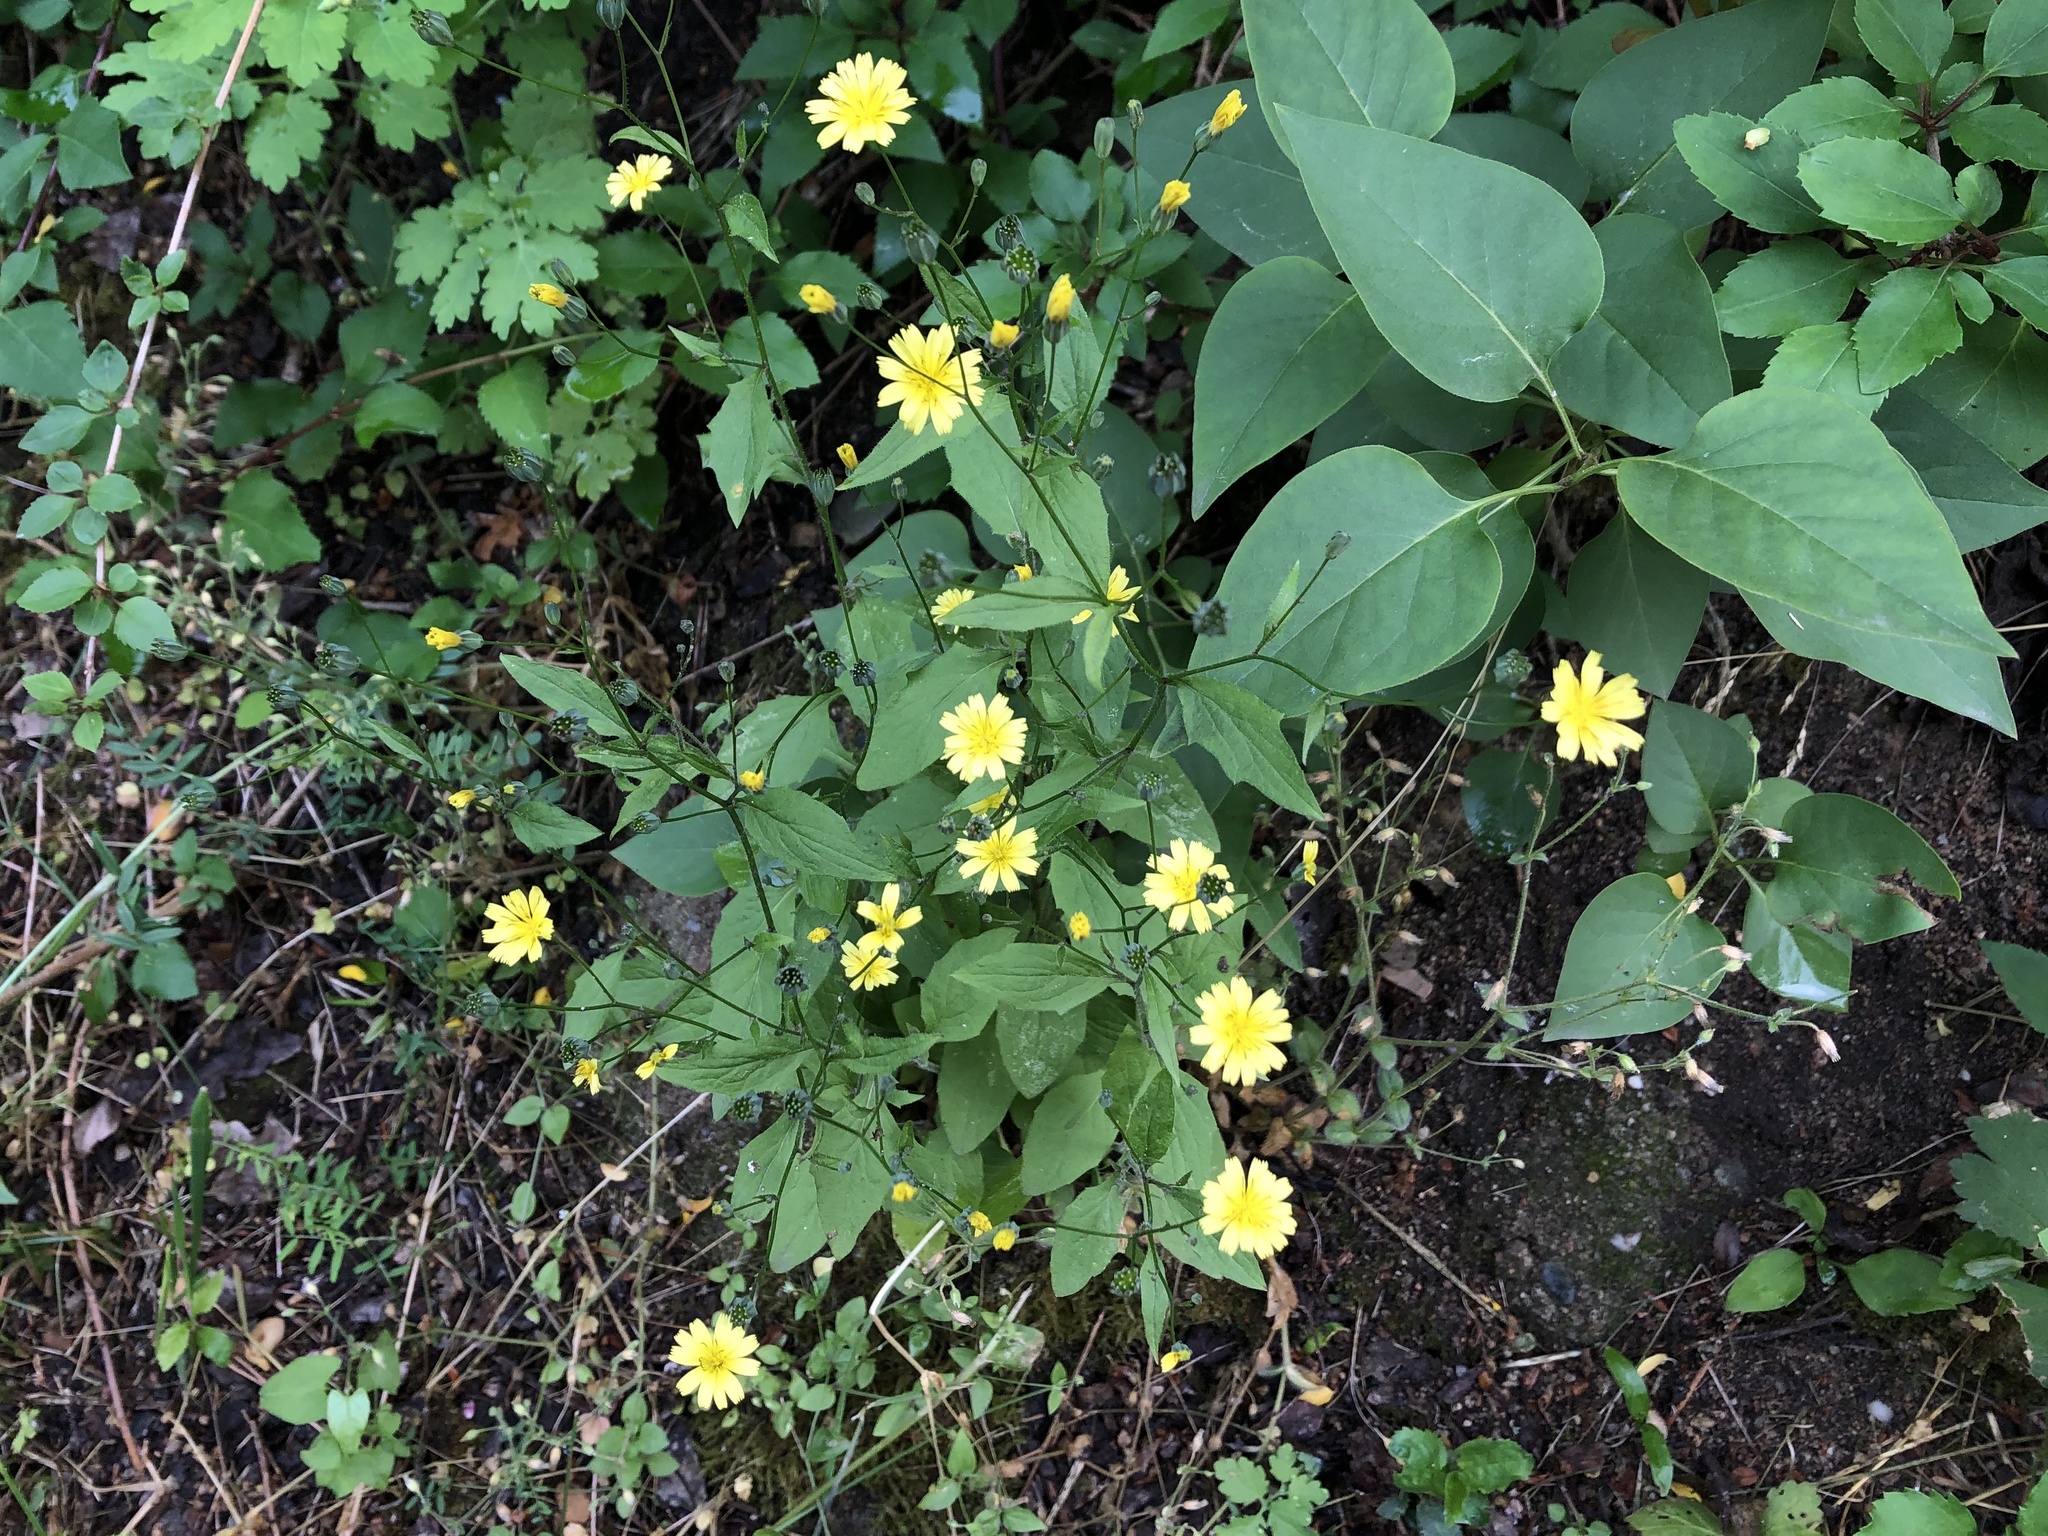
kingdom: Plantae
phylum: Tracheophyta
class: Magnoliopsida
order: Asterales
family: Asteraceae
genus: Lapsana
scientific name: Lapsana communis
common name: Nipplewort
